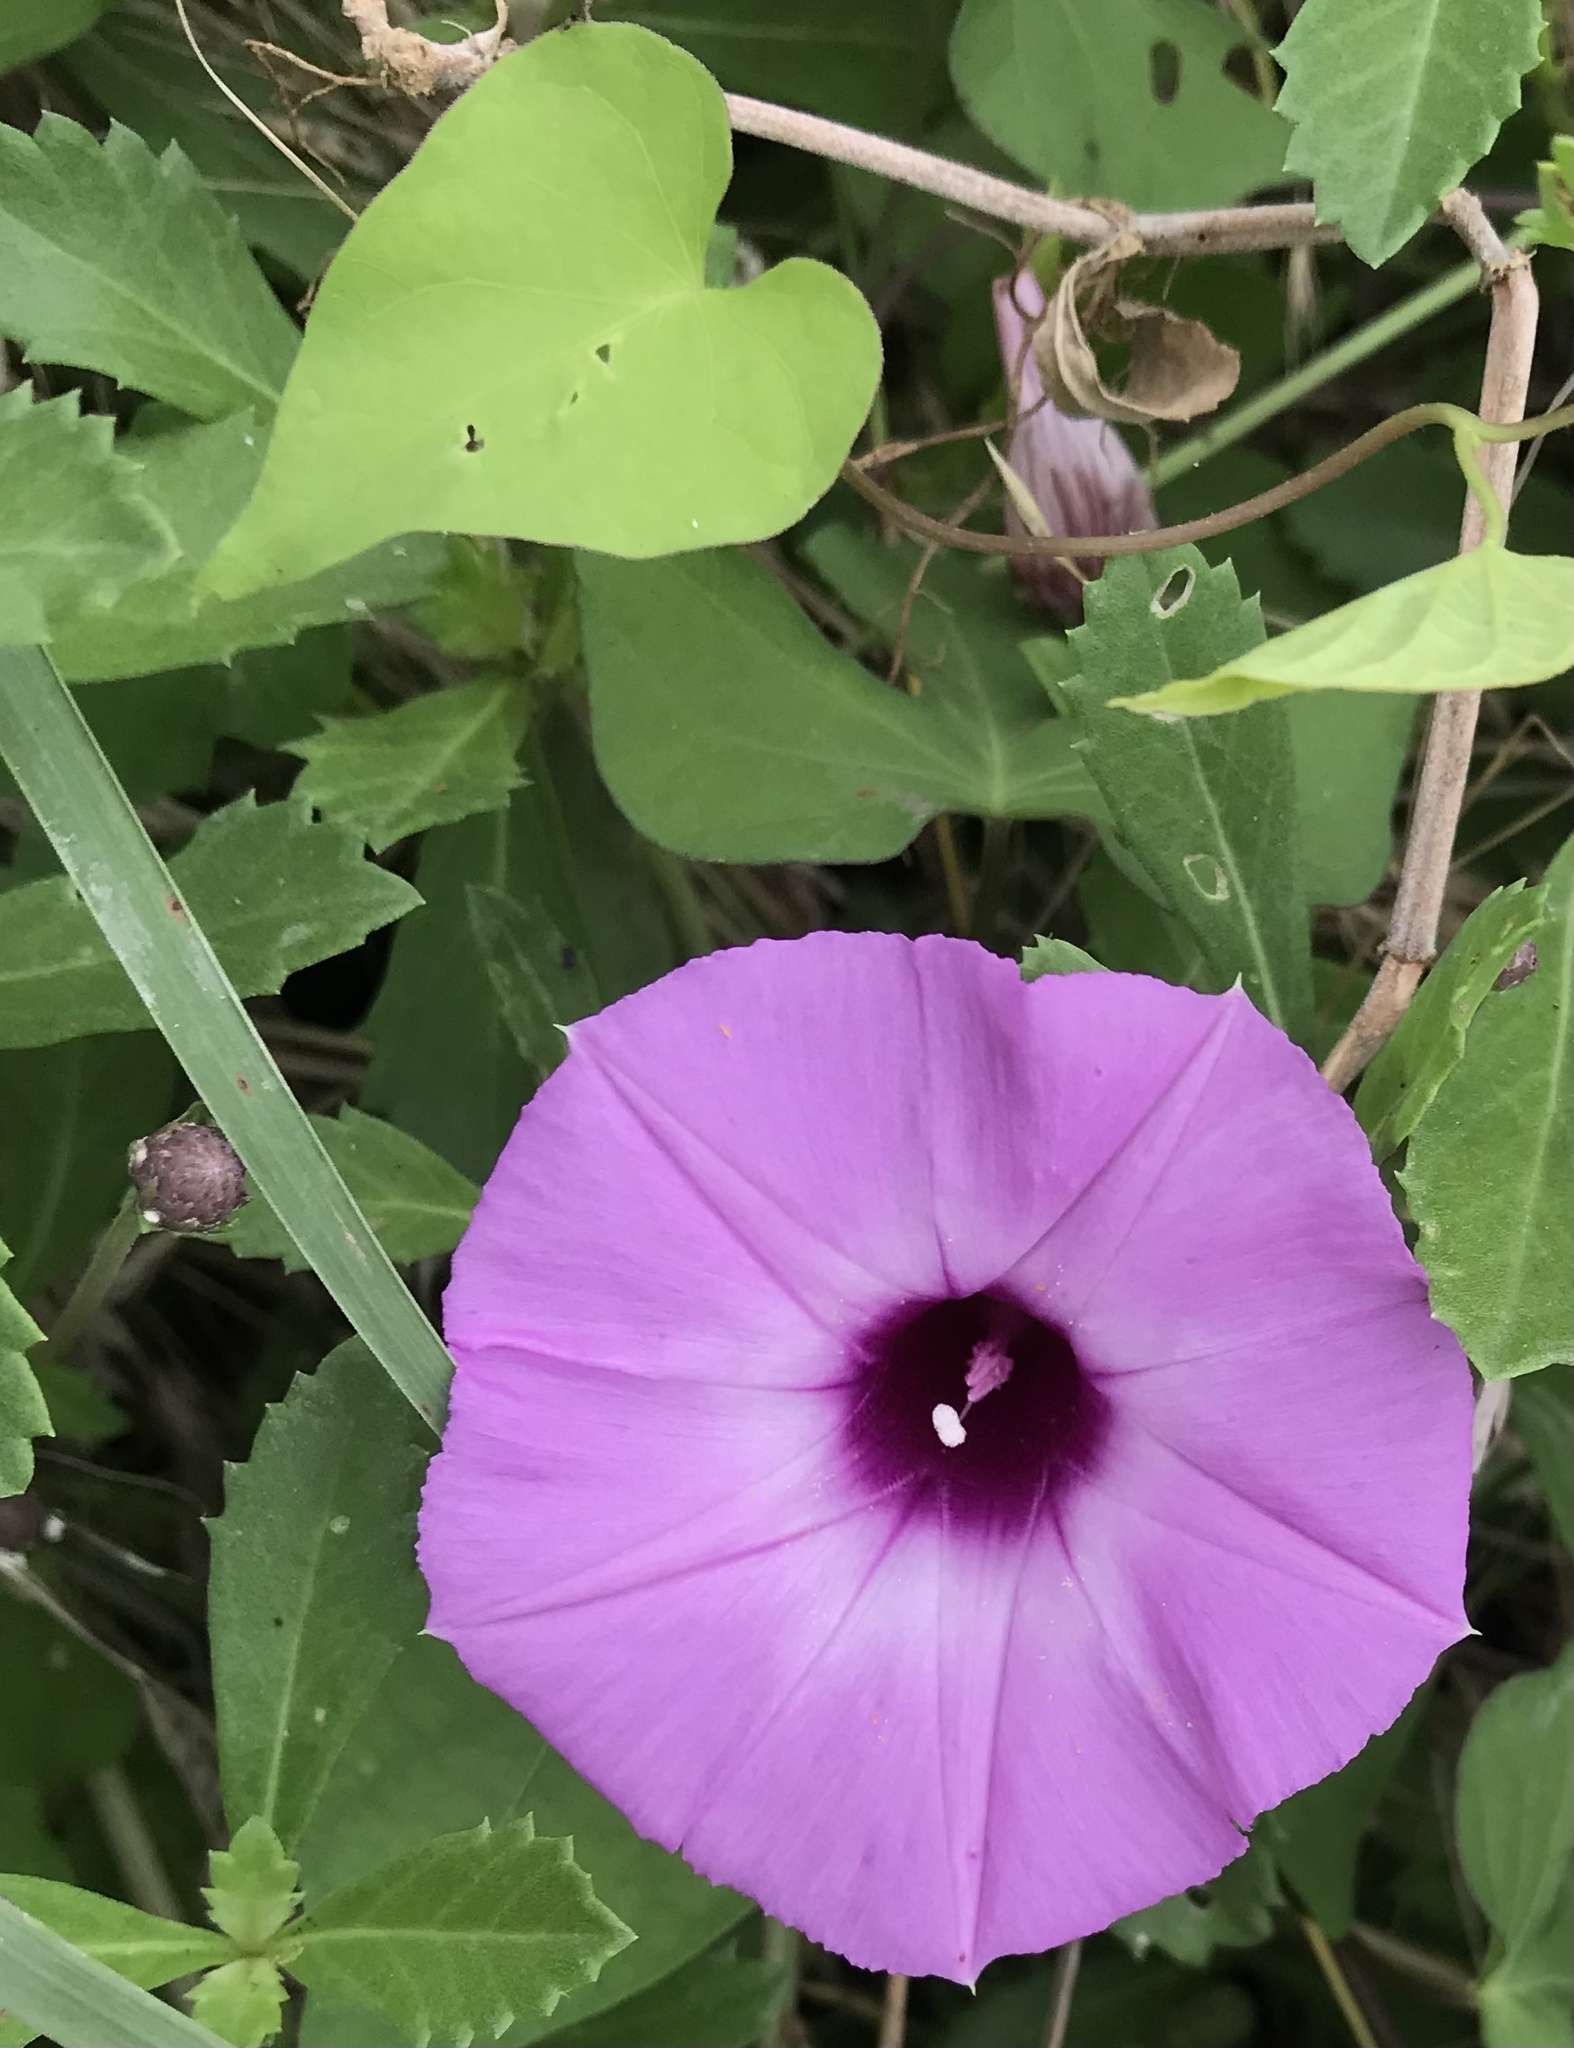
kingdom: Plantae
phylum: Tracheophyta
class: Magnoliopsida
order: Solanales
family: Convolvulaceae
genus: Ipomoea
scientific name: Ipomoea cordatotriloba
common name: Cotton morning glory
